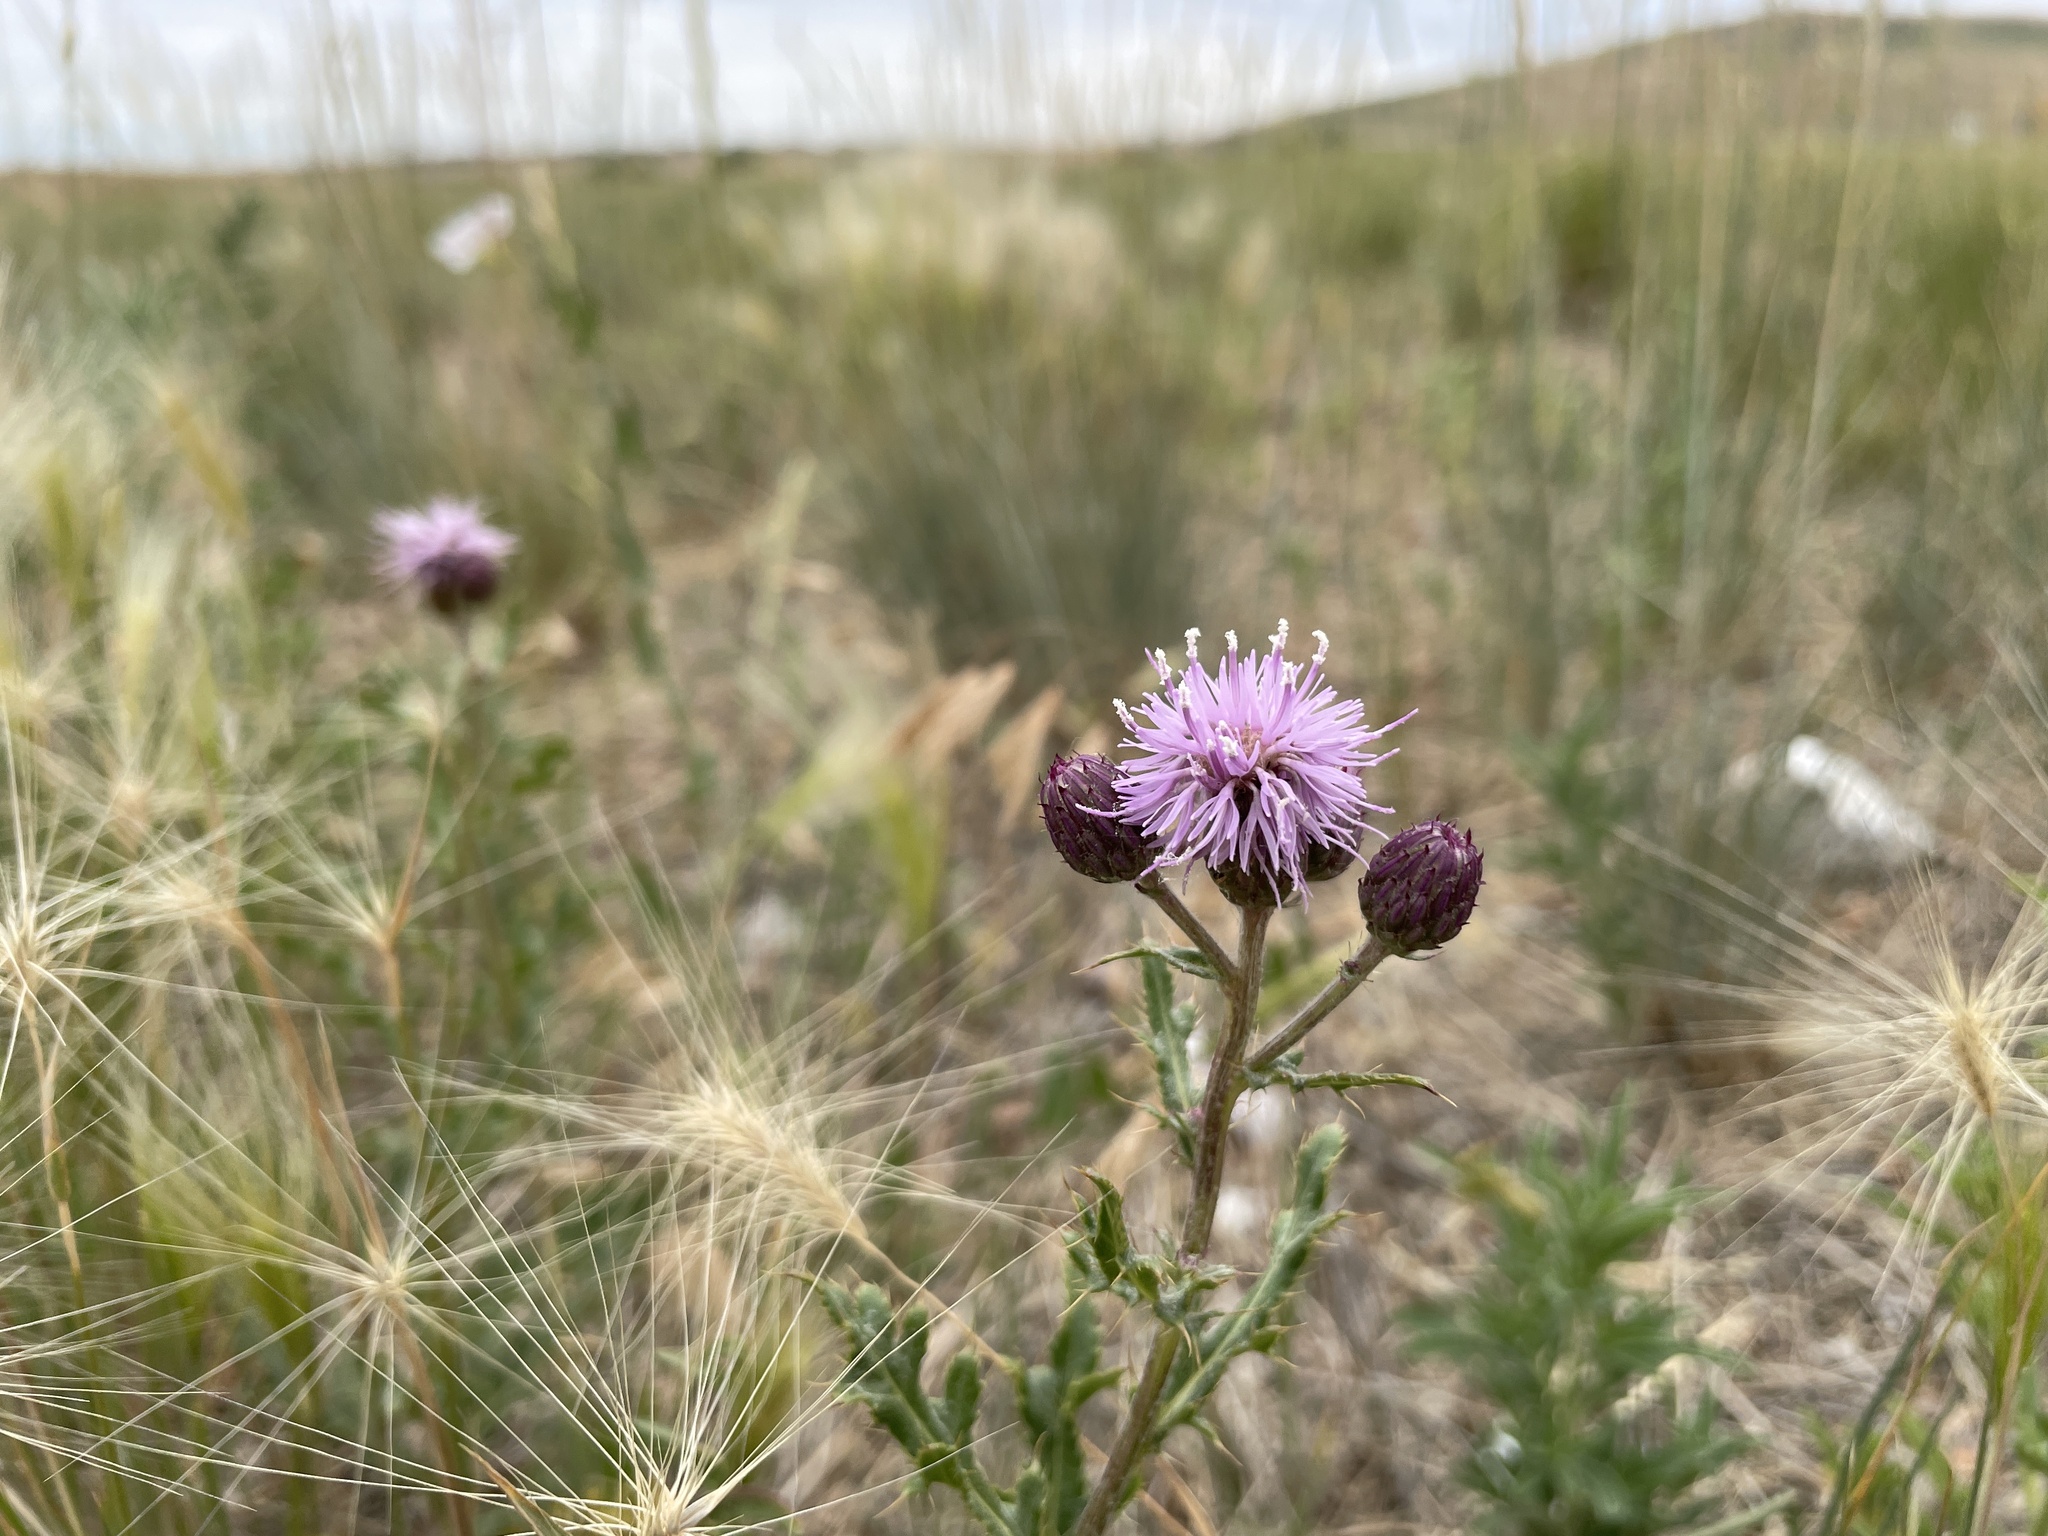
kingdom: Plantae
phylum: Tracheophyta
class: Magnoliopsida
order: Asterales
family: Asteraceae
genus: Cirsium
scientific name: Cirsium arvense
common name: Creeping thistle
